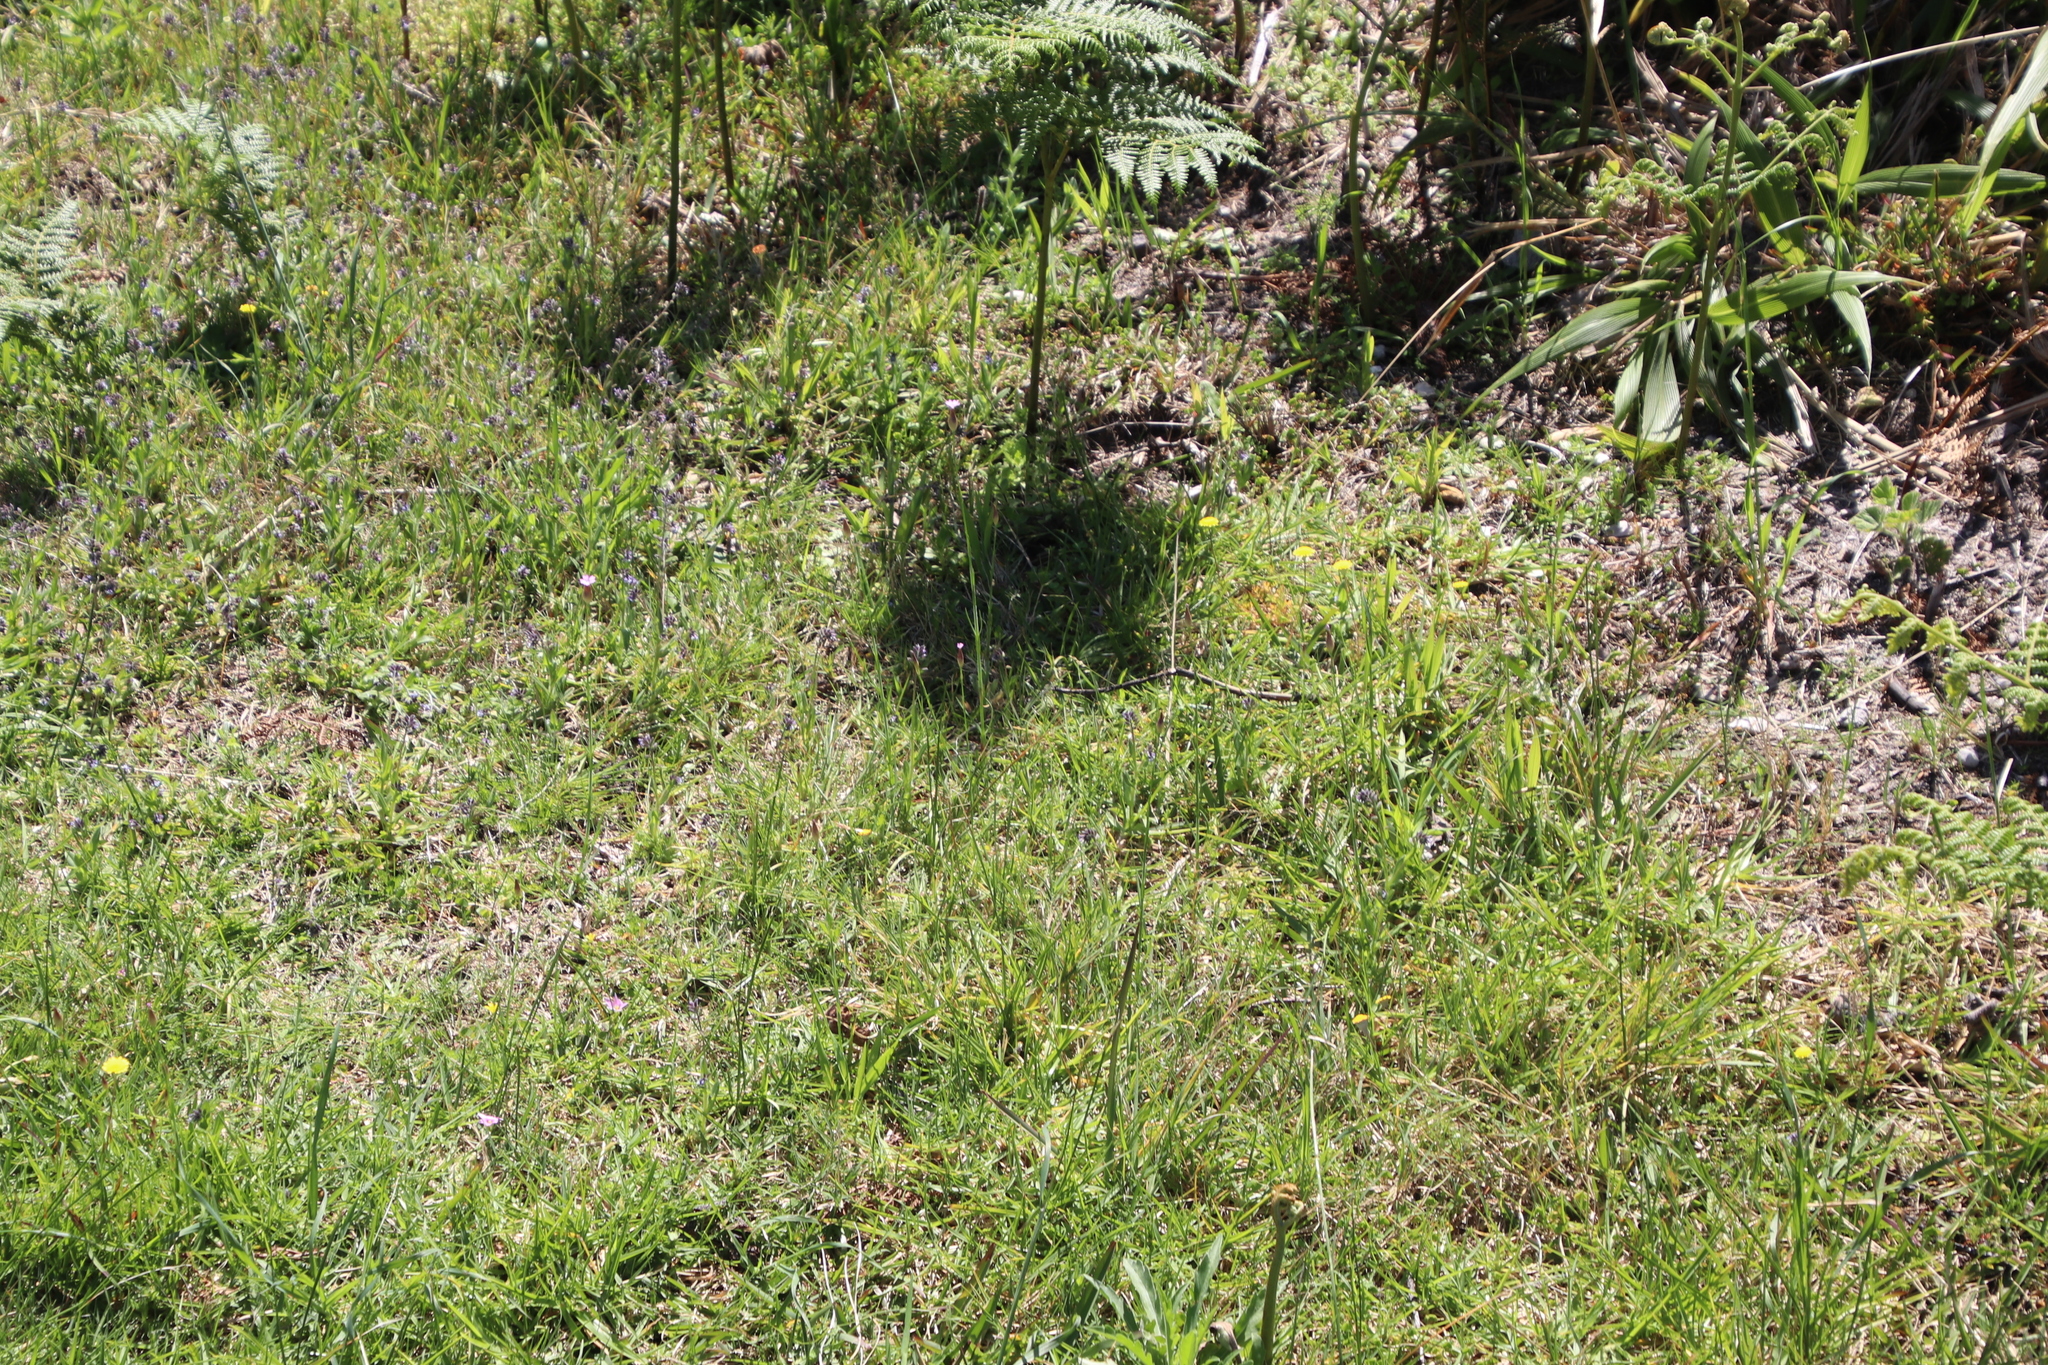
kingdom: Plantae
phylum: Tracheophyta
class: Magnoliopsida
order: Boraginales
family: Boraginaceae
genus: Myosotis
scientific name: Myosotis discolor
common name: Changing forget-me-not
